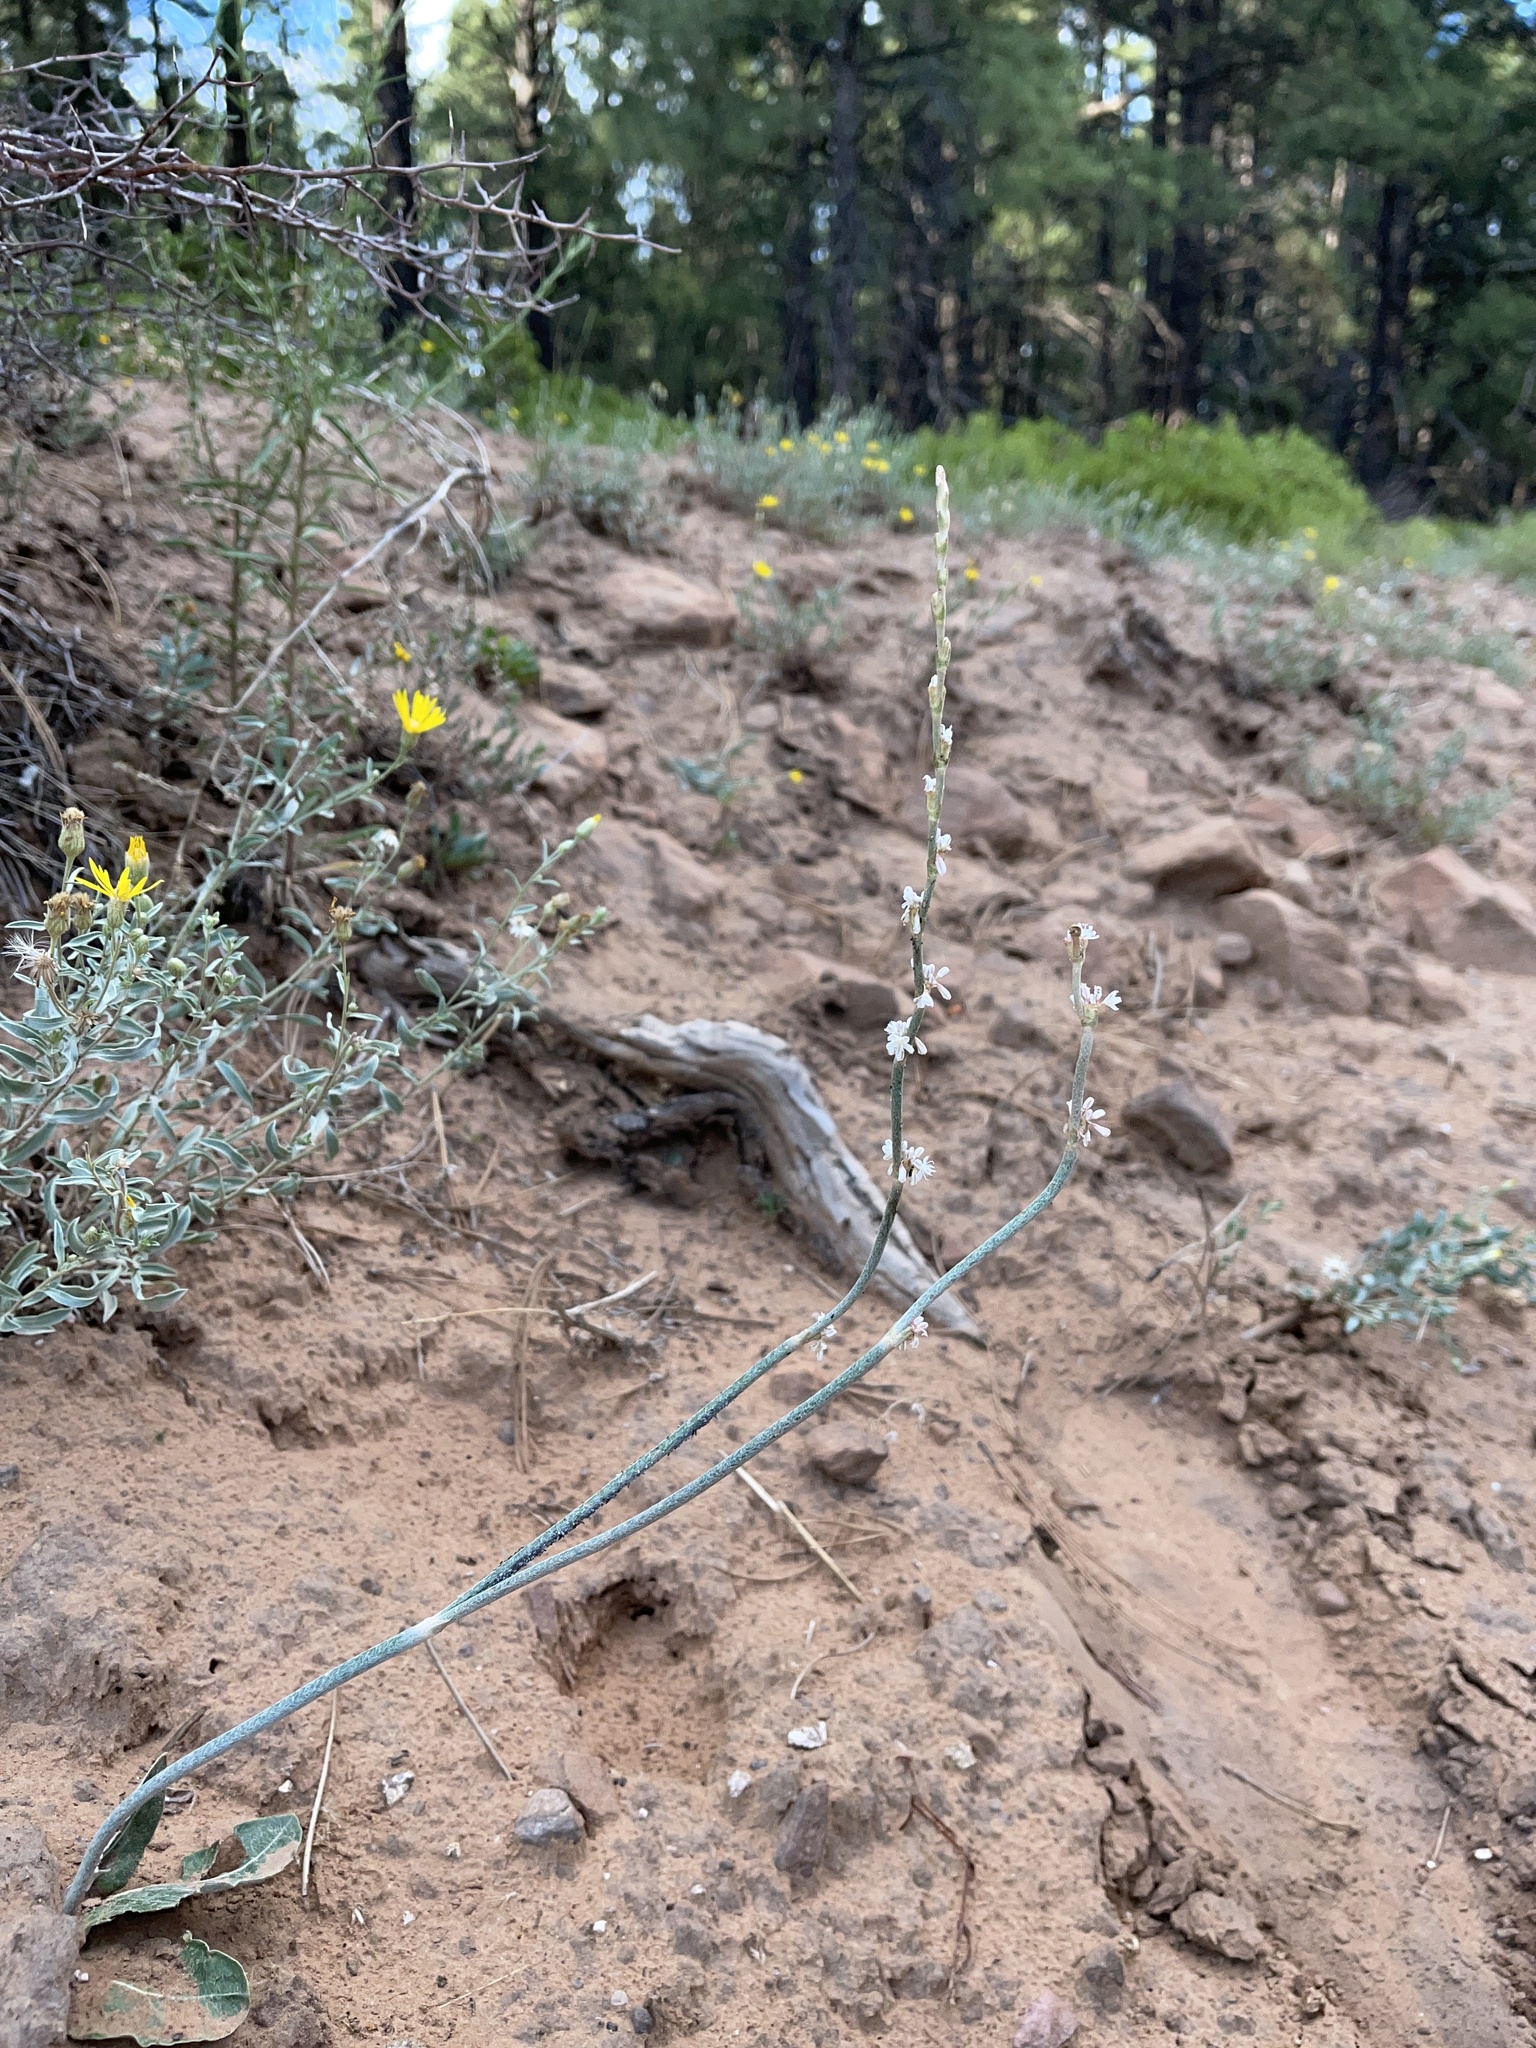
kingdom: Plantae
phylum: Tracheophyta
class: Magnoliopsida
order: Caryophyllales
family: Polygonaceae
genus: Eriogonum
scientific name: Eriogonum racemosum
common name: Redroot wild buckwheat
